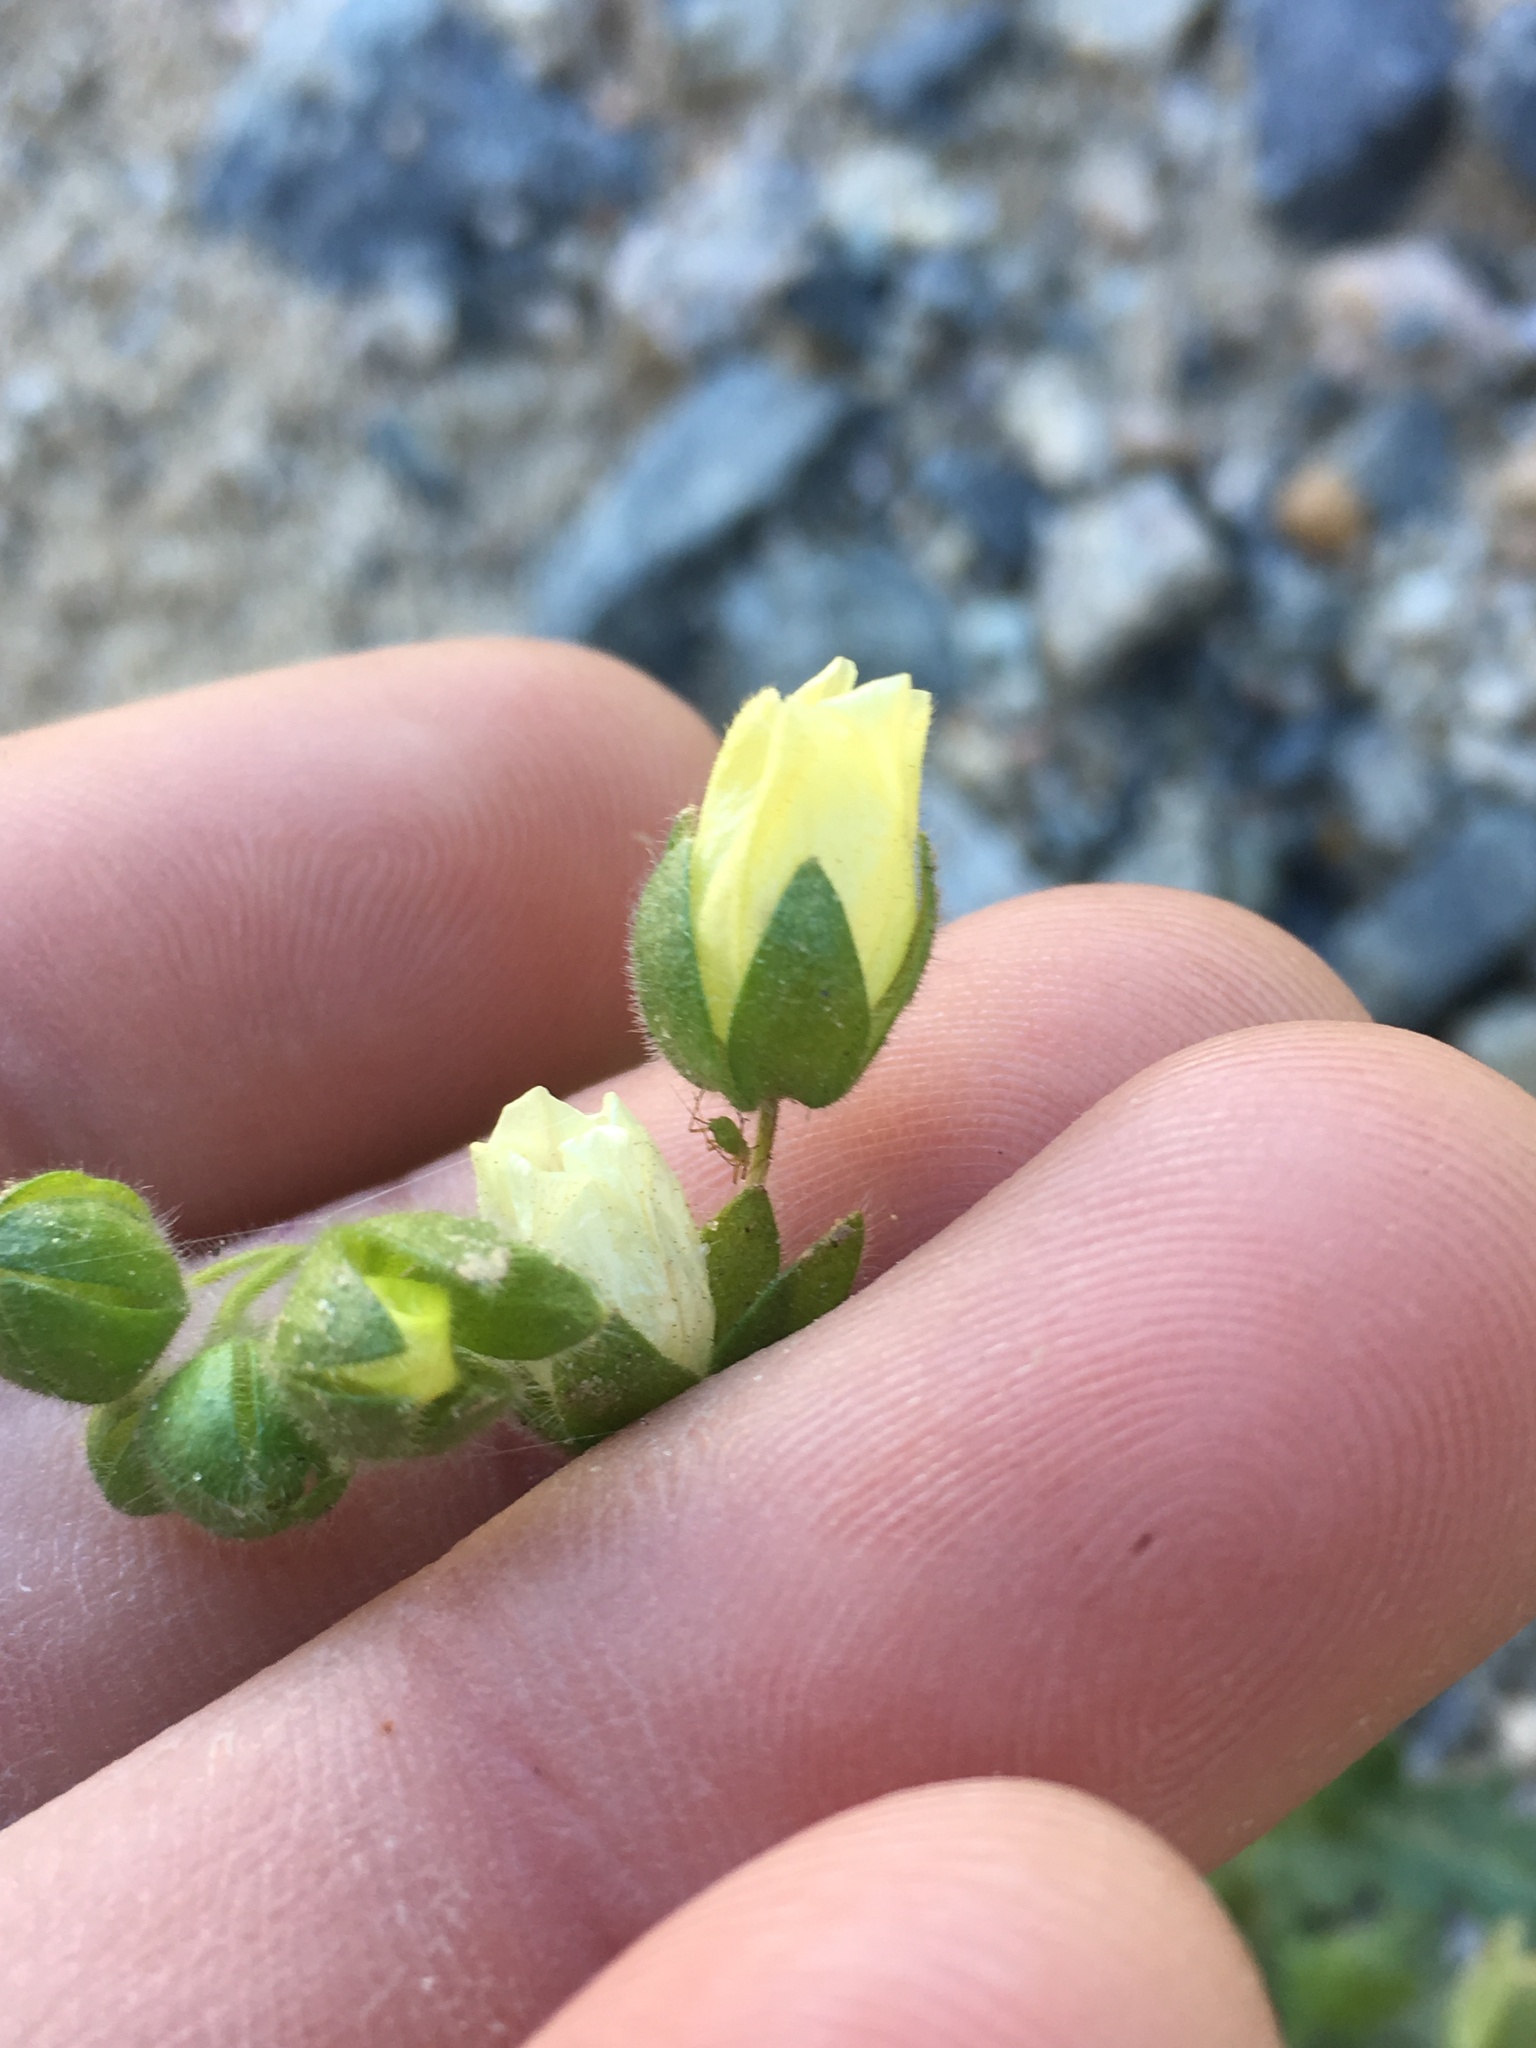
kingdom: Plantae
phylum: Tracheophyta
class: Magnoliopsida
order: Boraginales
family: Hydrophyllaceae
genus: Emmenanthe
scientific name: Emmenanthe penduliflora
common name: Whispering-bells
